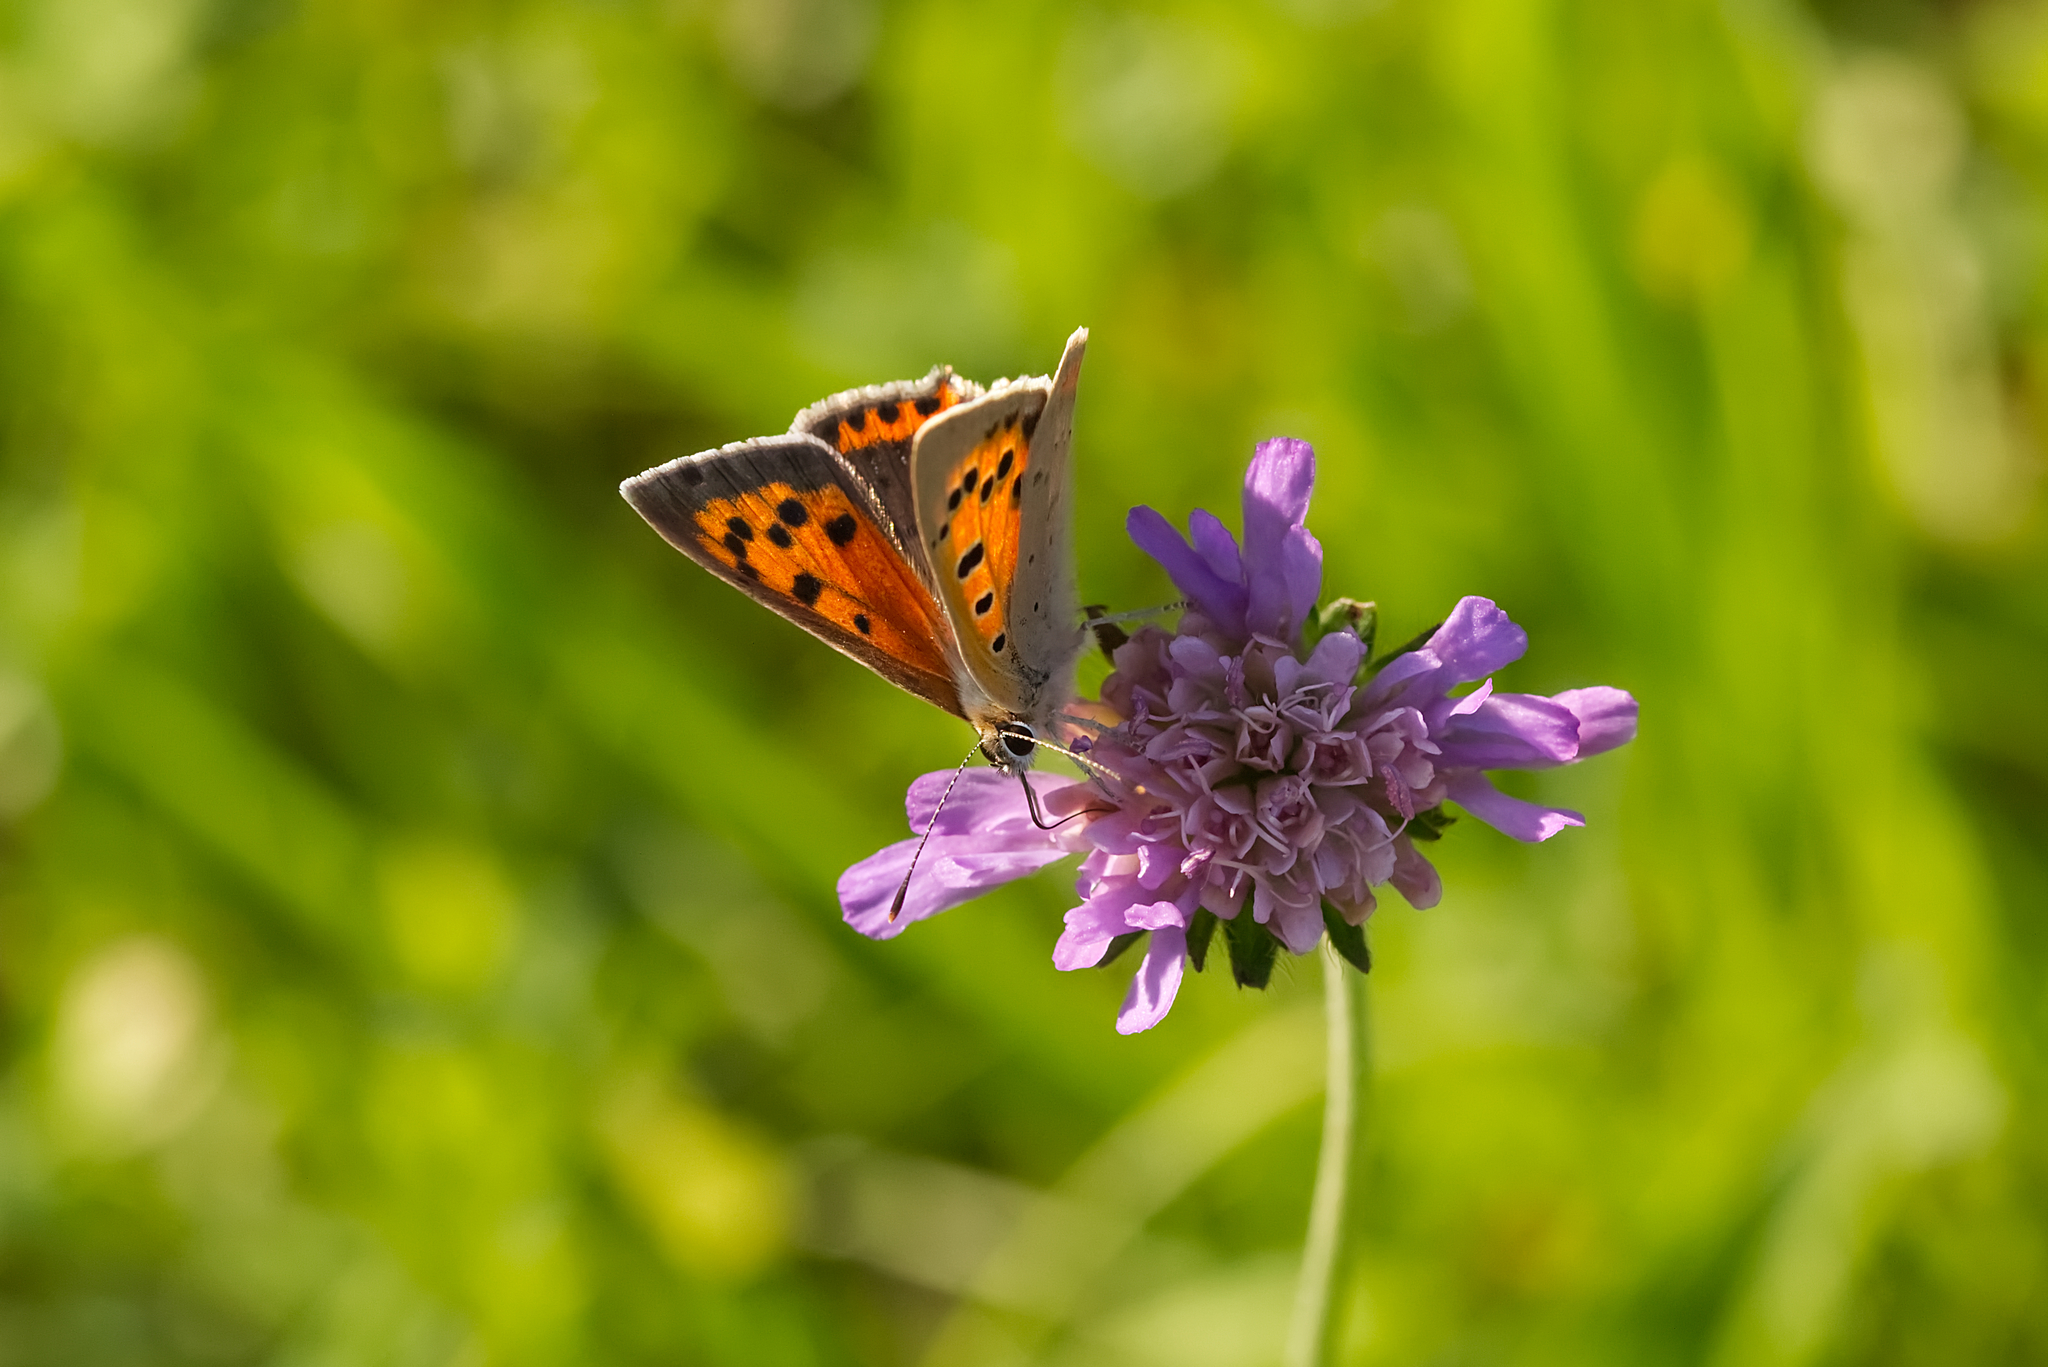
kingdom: Animalia
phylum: Arthropoda
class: Insecta
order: Lepidoptera
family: Lycaenidae
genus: Lycaena
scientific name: Lycaena phlaeas
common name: Small copper
